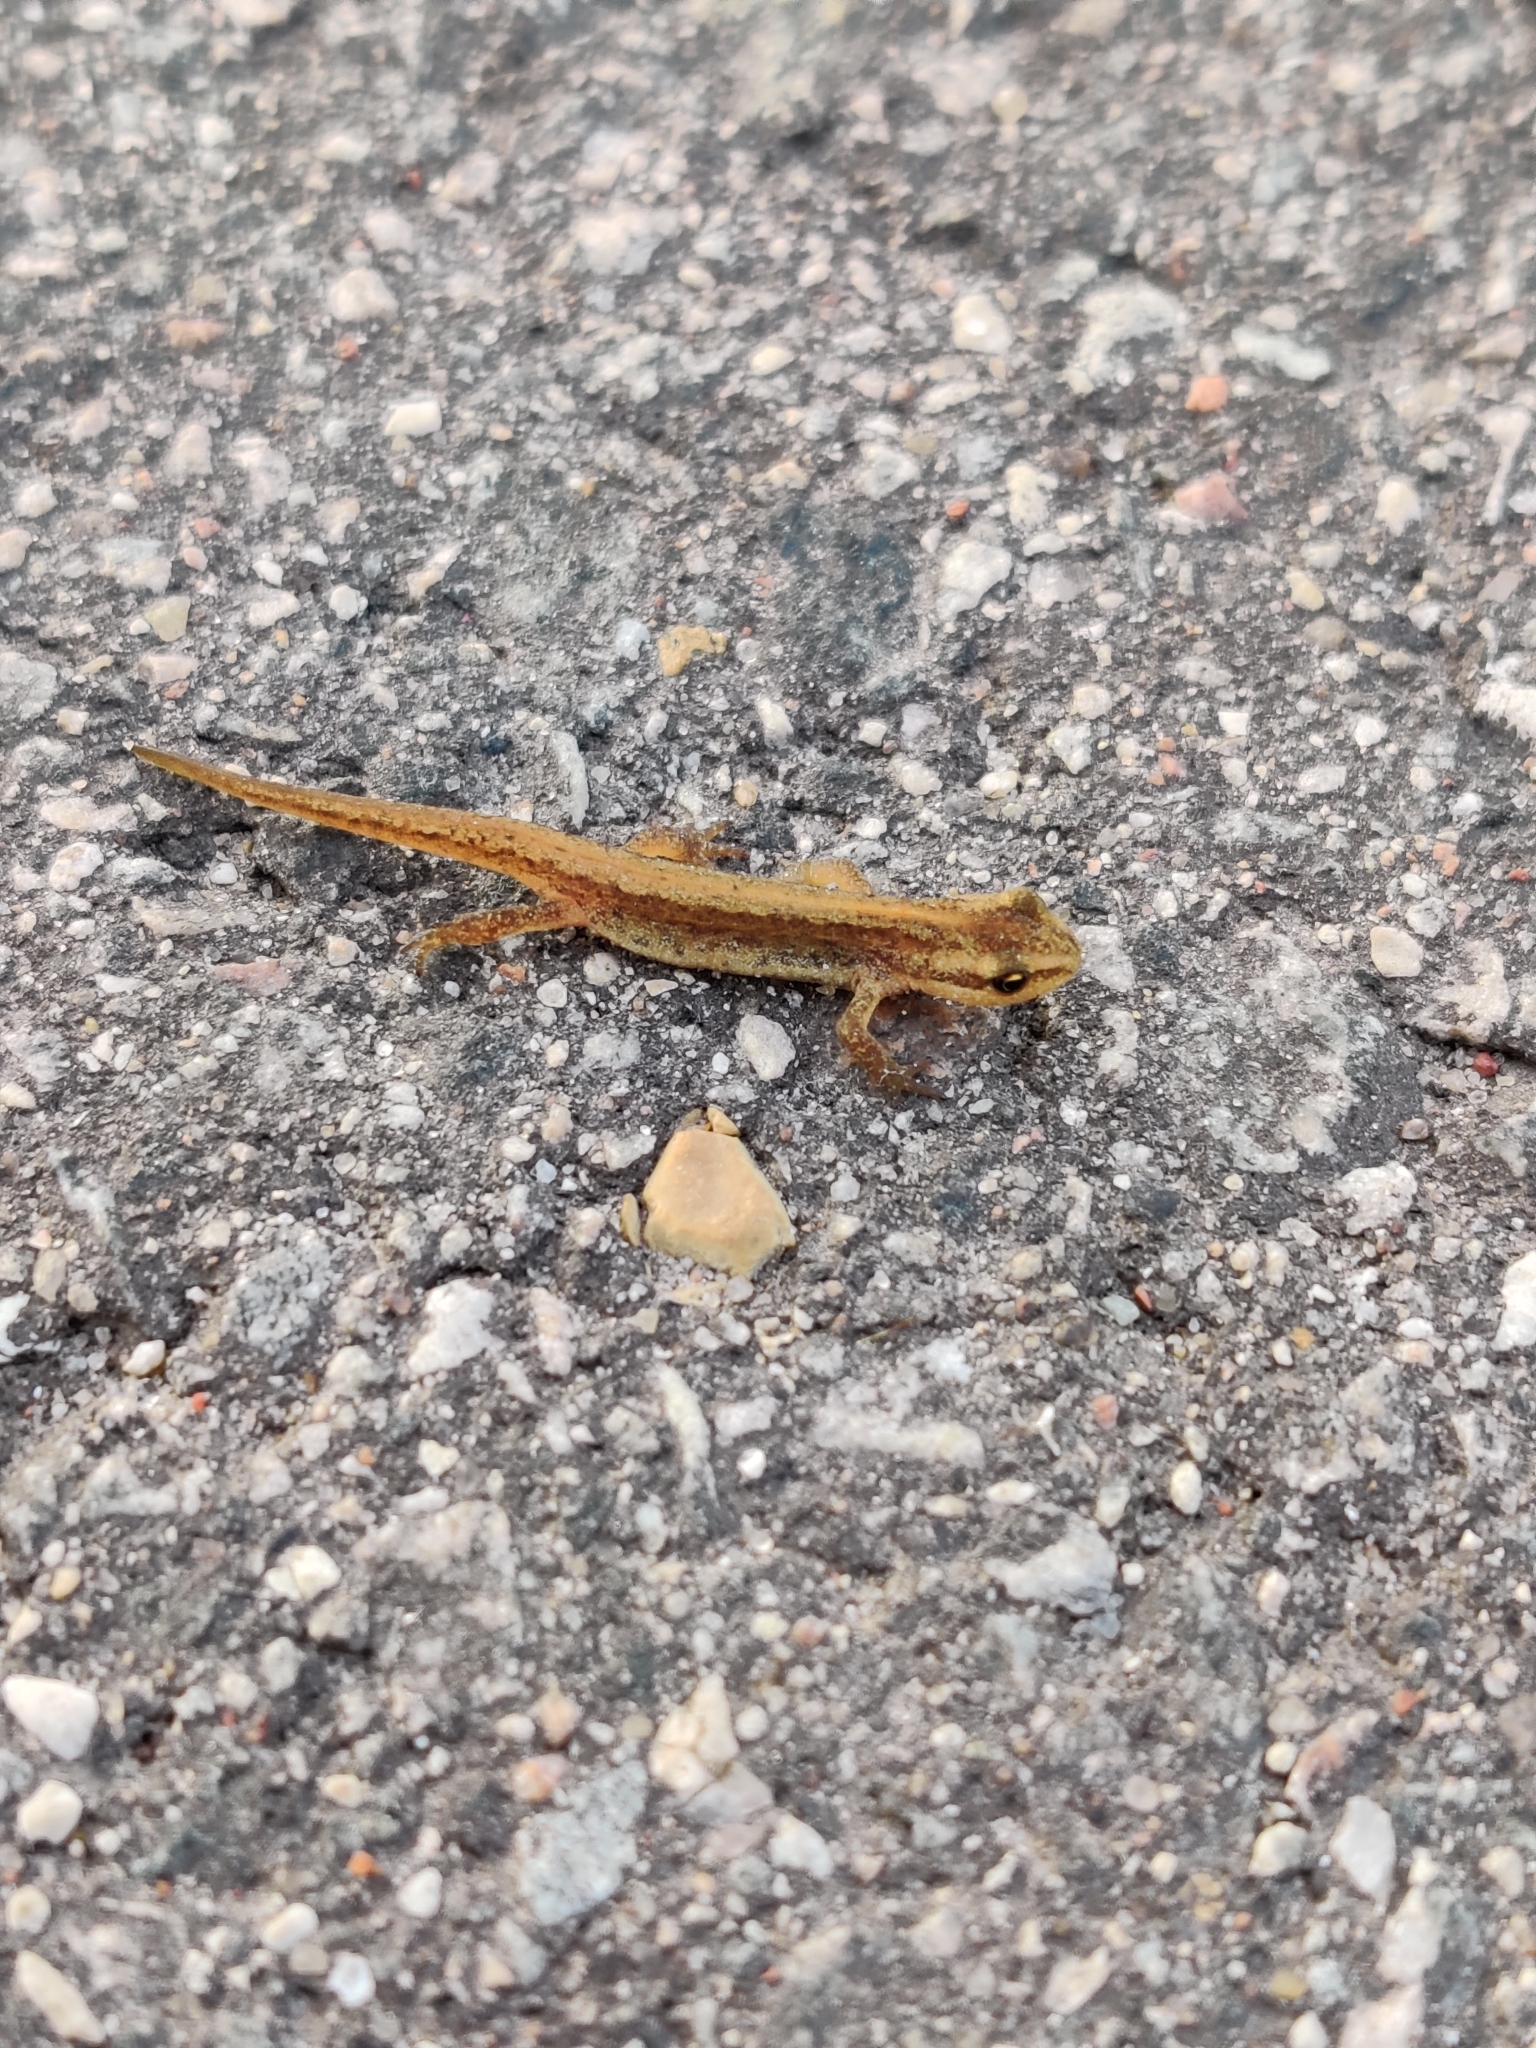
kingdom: Animalia
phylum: Chordata
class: Amphibia
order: Caudata
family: Salamandridae
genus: Lissotriton
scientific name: Lissotriton vulgaris
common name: Smooth newt
